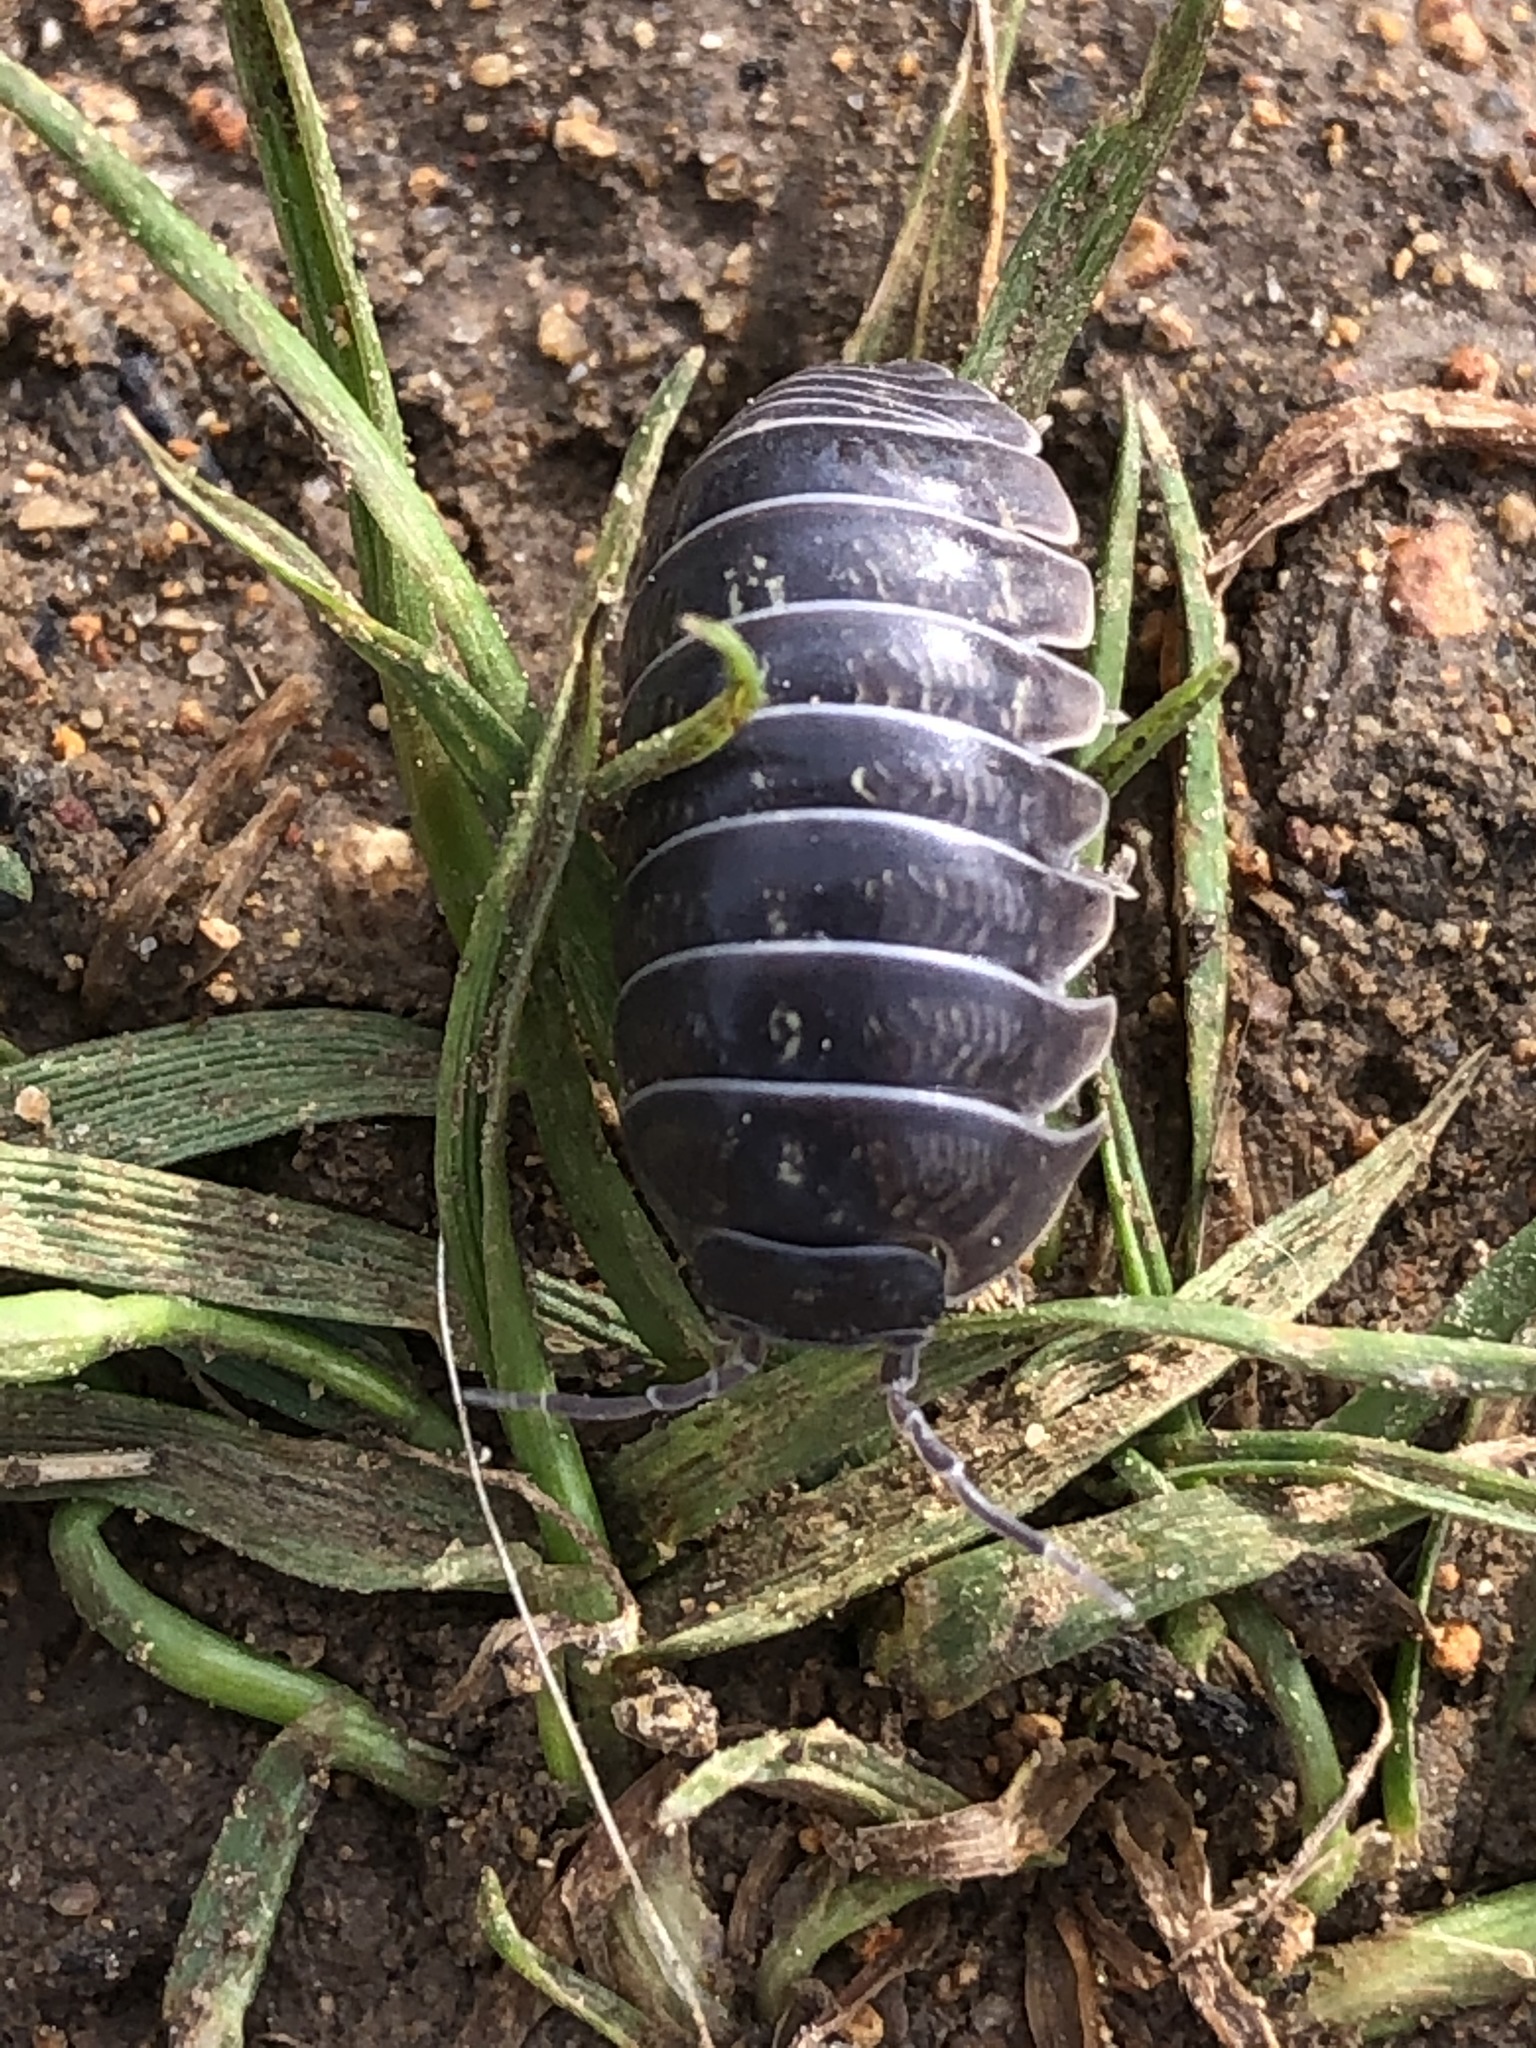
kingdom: Animalia
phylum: Arthropoda
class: Malacostraca
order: Isopoda
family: Armadillidiidae
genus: Armadillidium
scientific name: Armadillidium vulgare
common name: Common pill woodlouse
